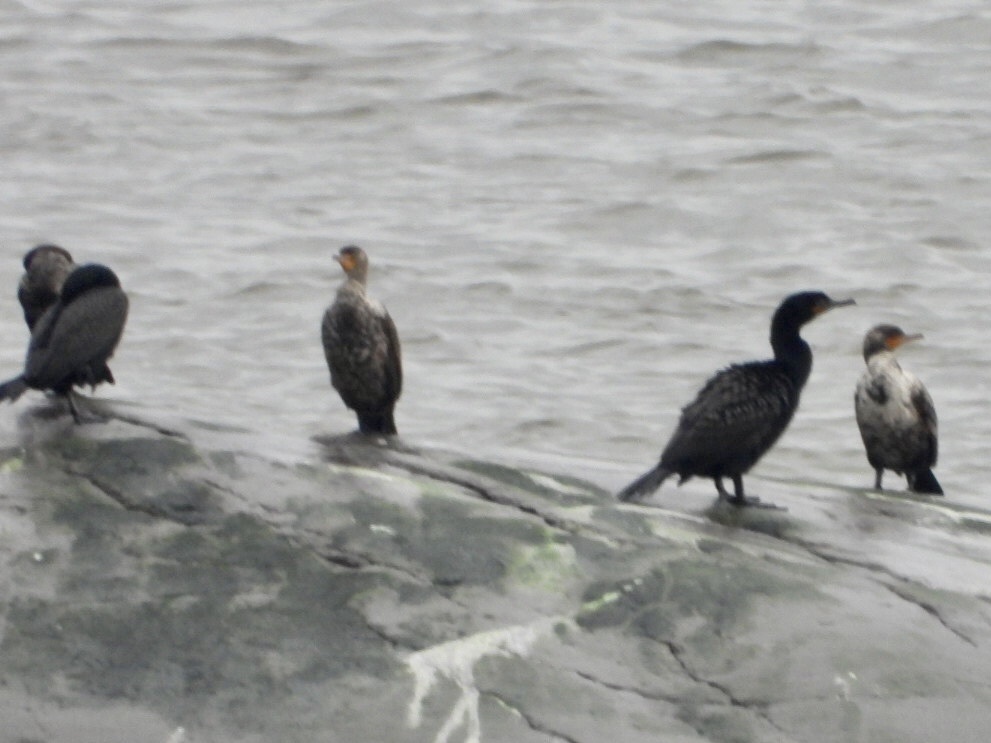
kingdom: Animalia
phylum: Chordata
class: Aves
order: Suliformes
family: Phalacrocoracidae
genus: Phalacrocorax
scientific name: Phalacrocorax auritus
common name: Double-crested cormorant
